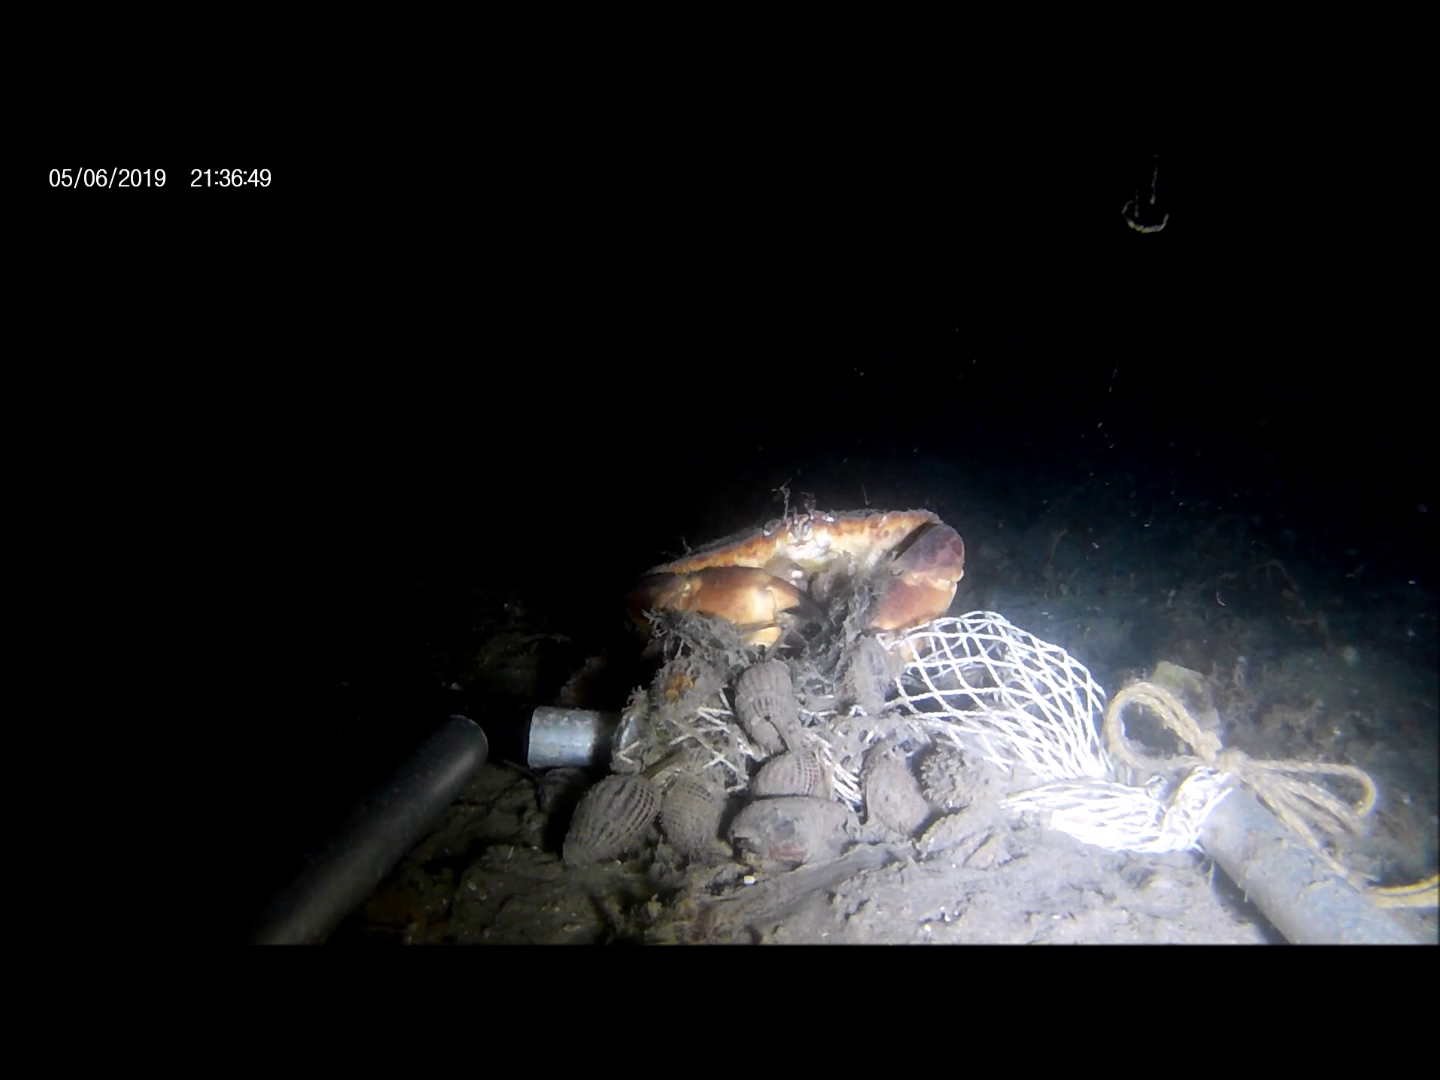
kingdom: Animalia
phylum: Arthropoda
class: Malacostraca
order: Decapoda
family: Cancridae
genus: Cancer
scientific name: Cancer pagurus
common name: Edible crab
